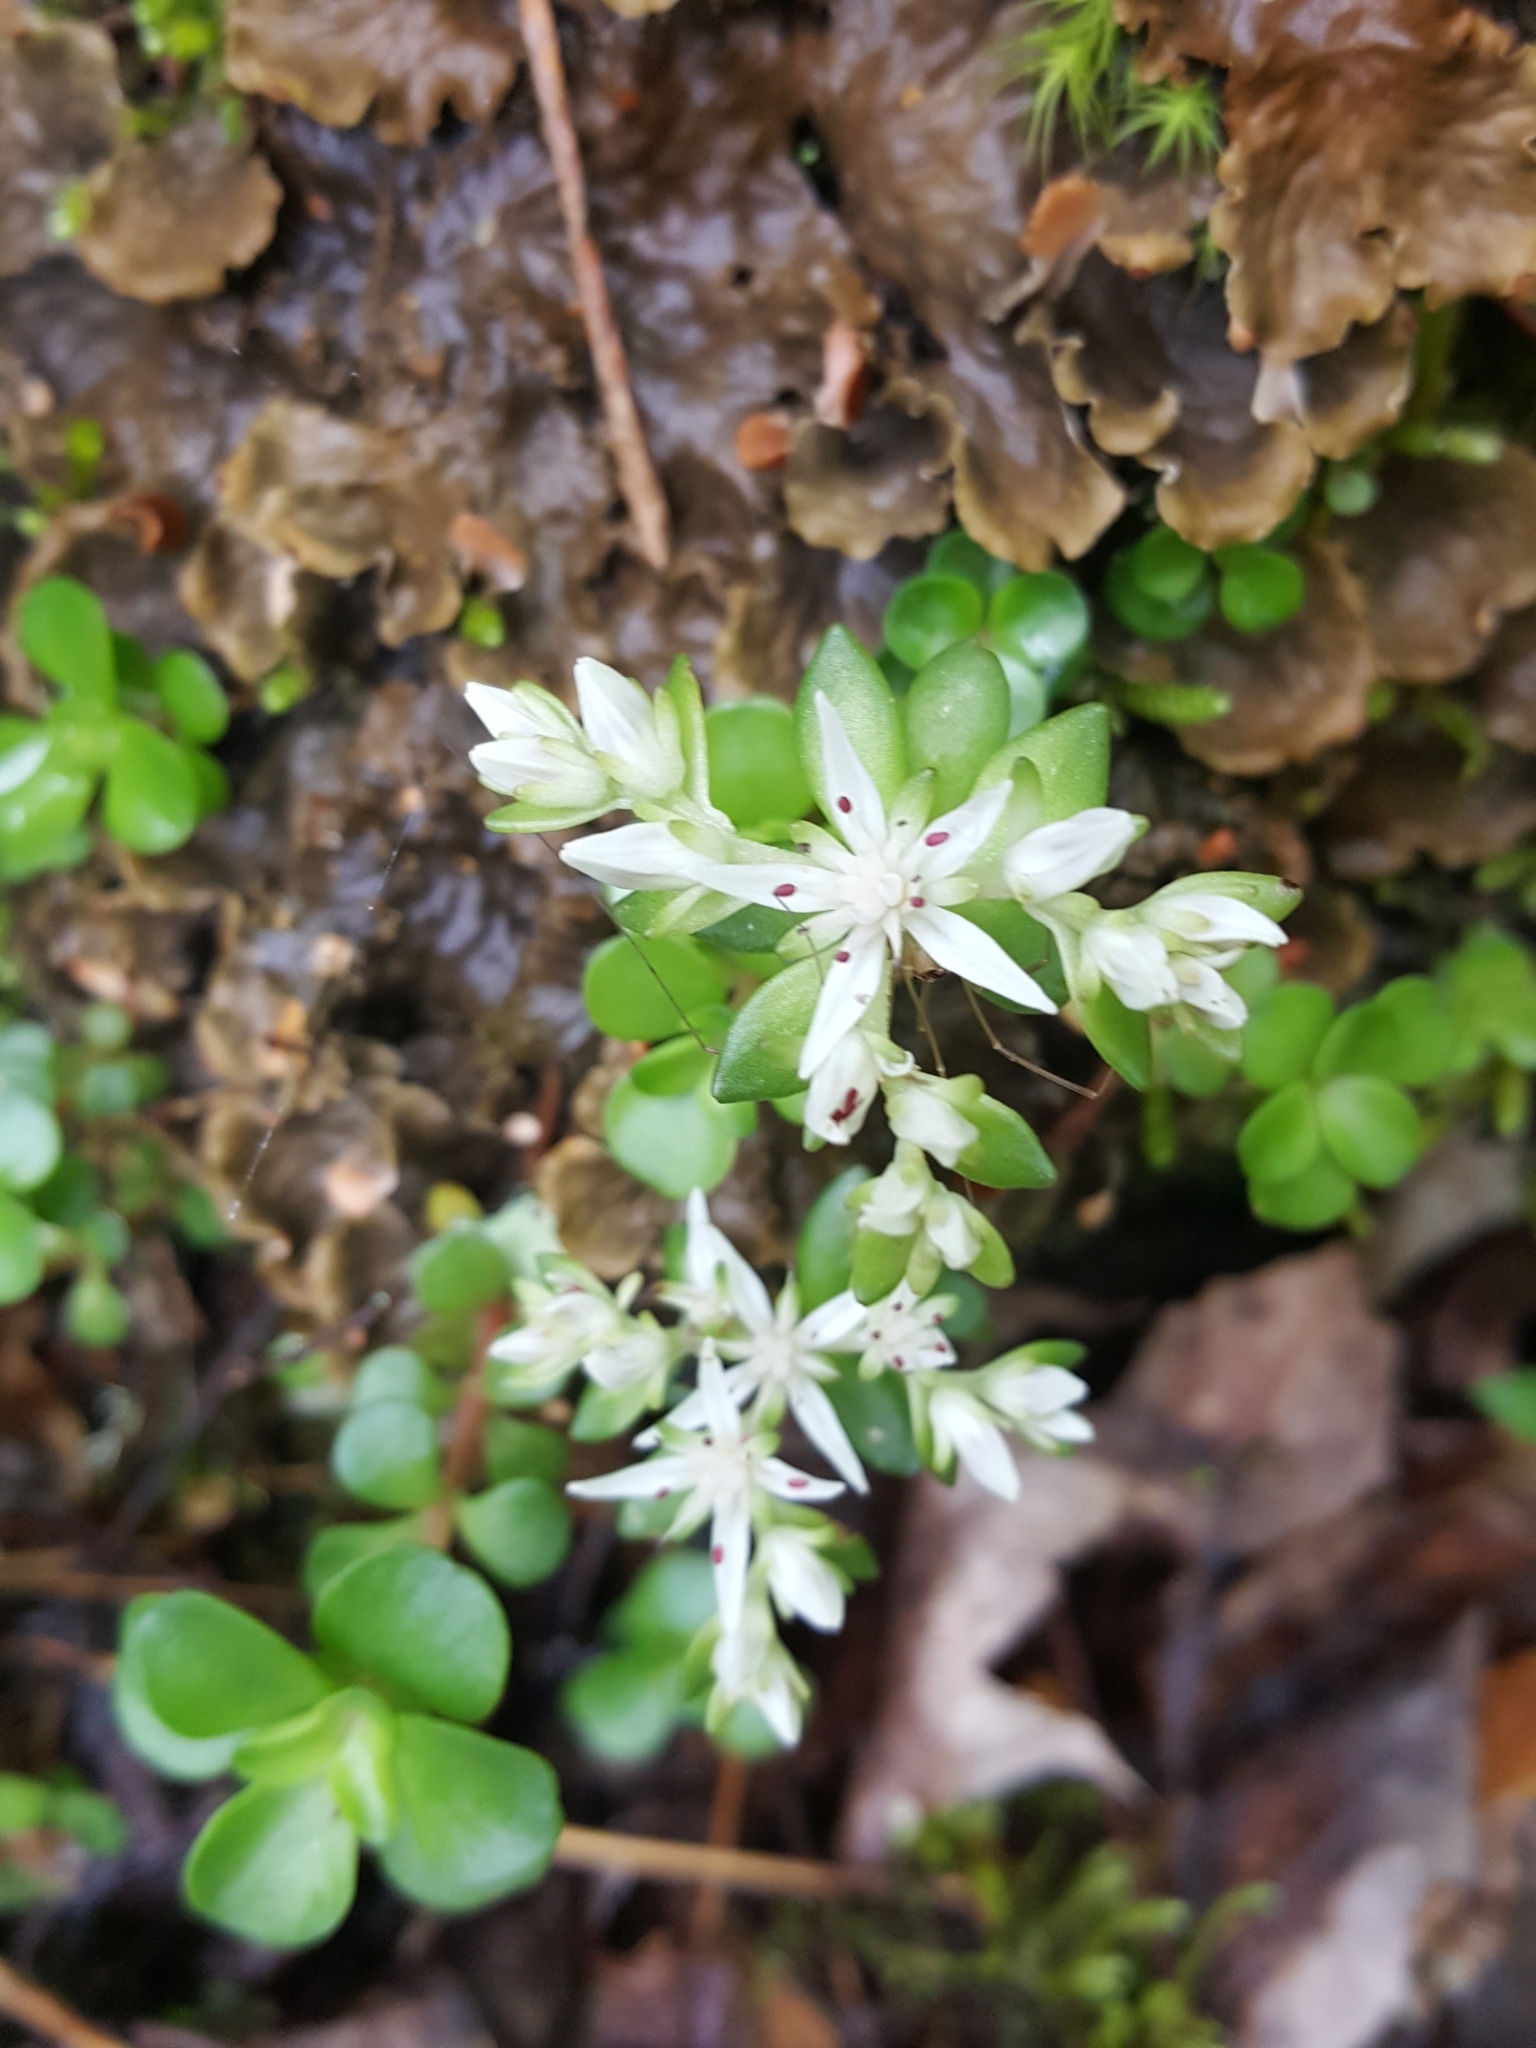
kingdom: Plantae
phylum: Tracheophyta
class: Magnoliopsida
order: Saxifragales
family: Crassulaceae
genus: Sedum
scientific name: Sedum ternatum
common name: Wild stonecrop
